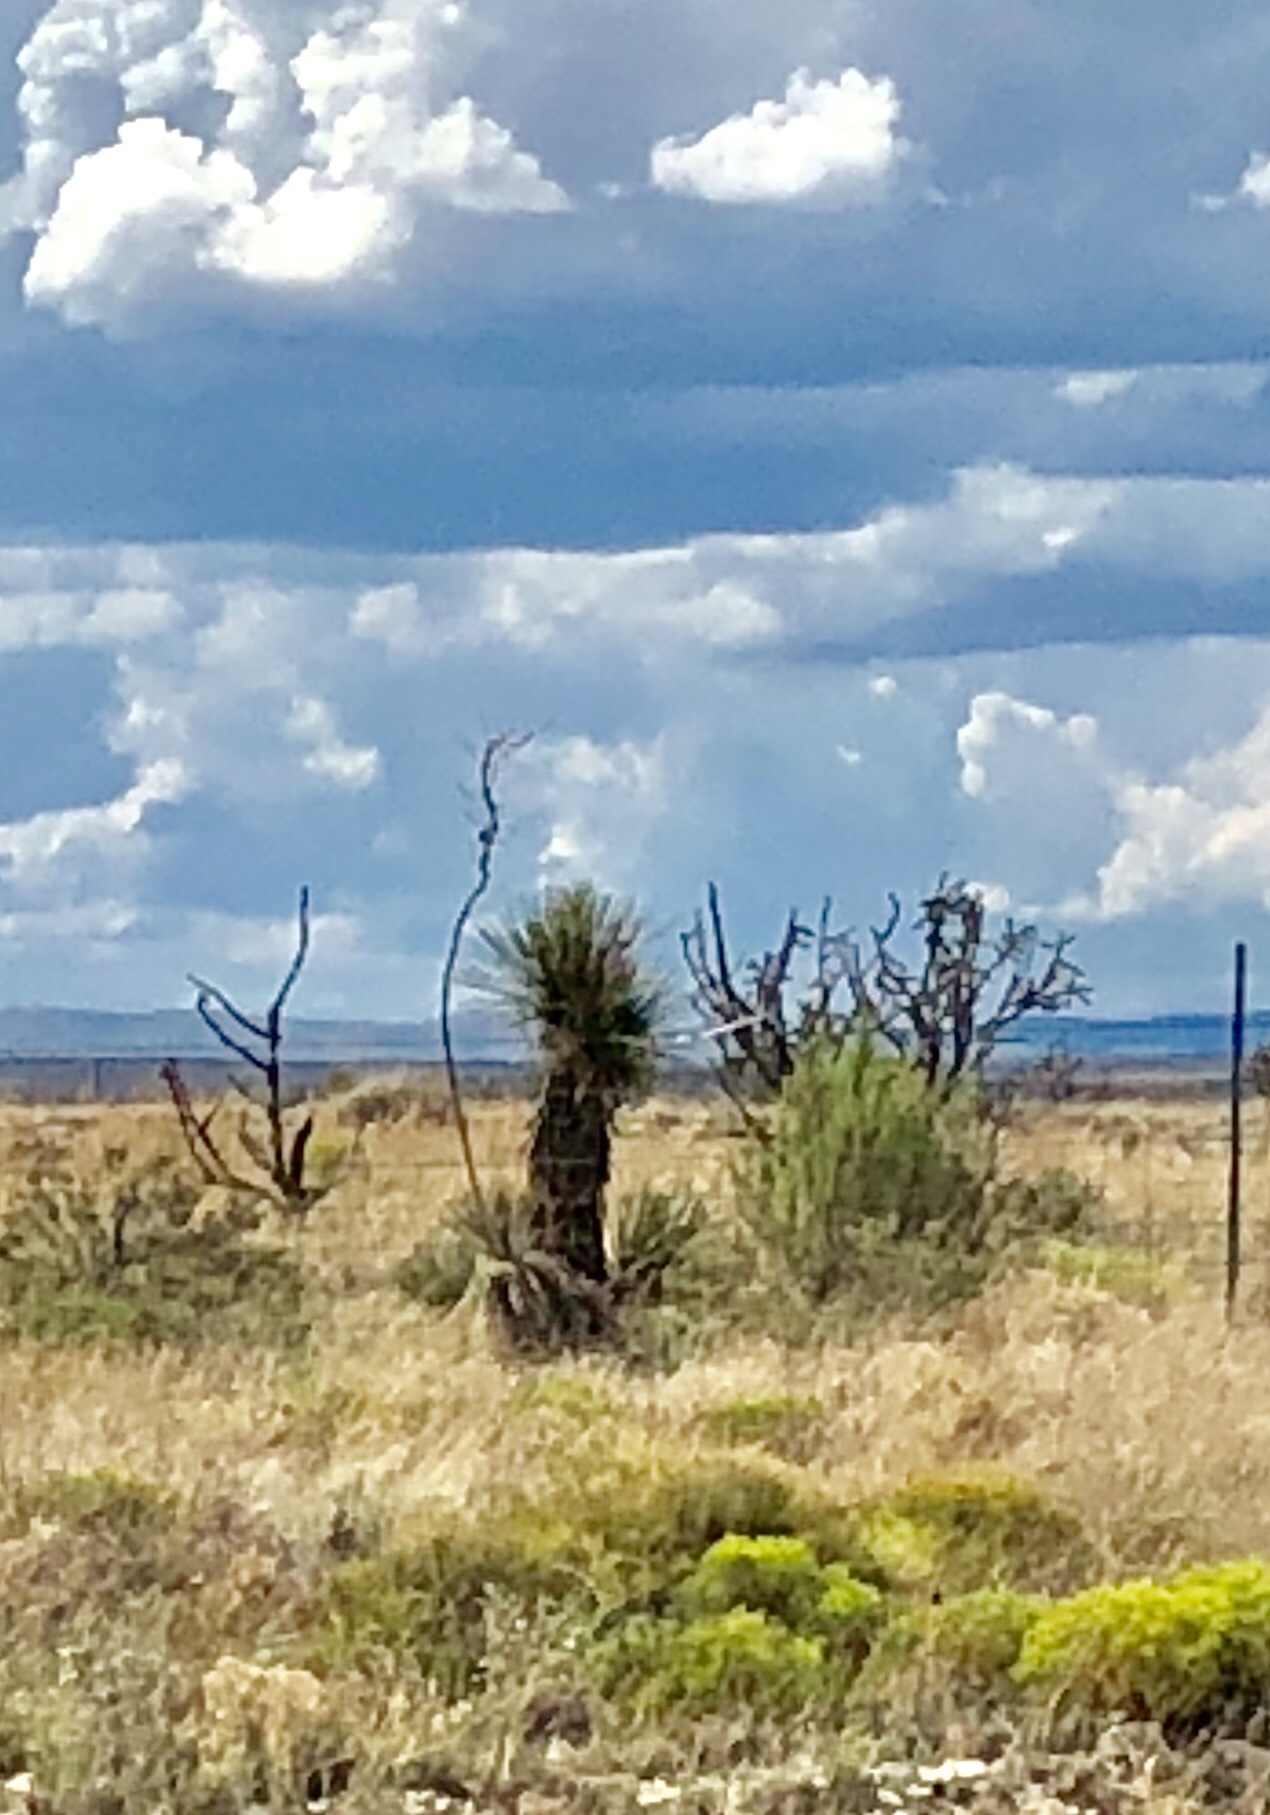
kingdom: Plantae
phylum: Tracheophyta
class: Liliopsida
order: Asparagales
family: Asparagaceae
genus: Yucca
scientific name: Yucca elata
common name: Palmella
